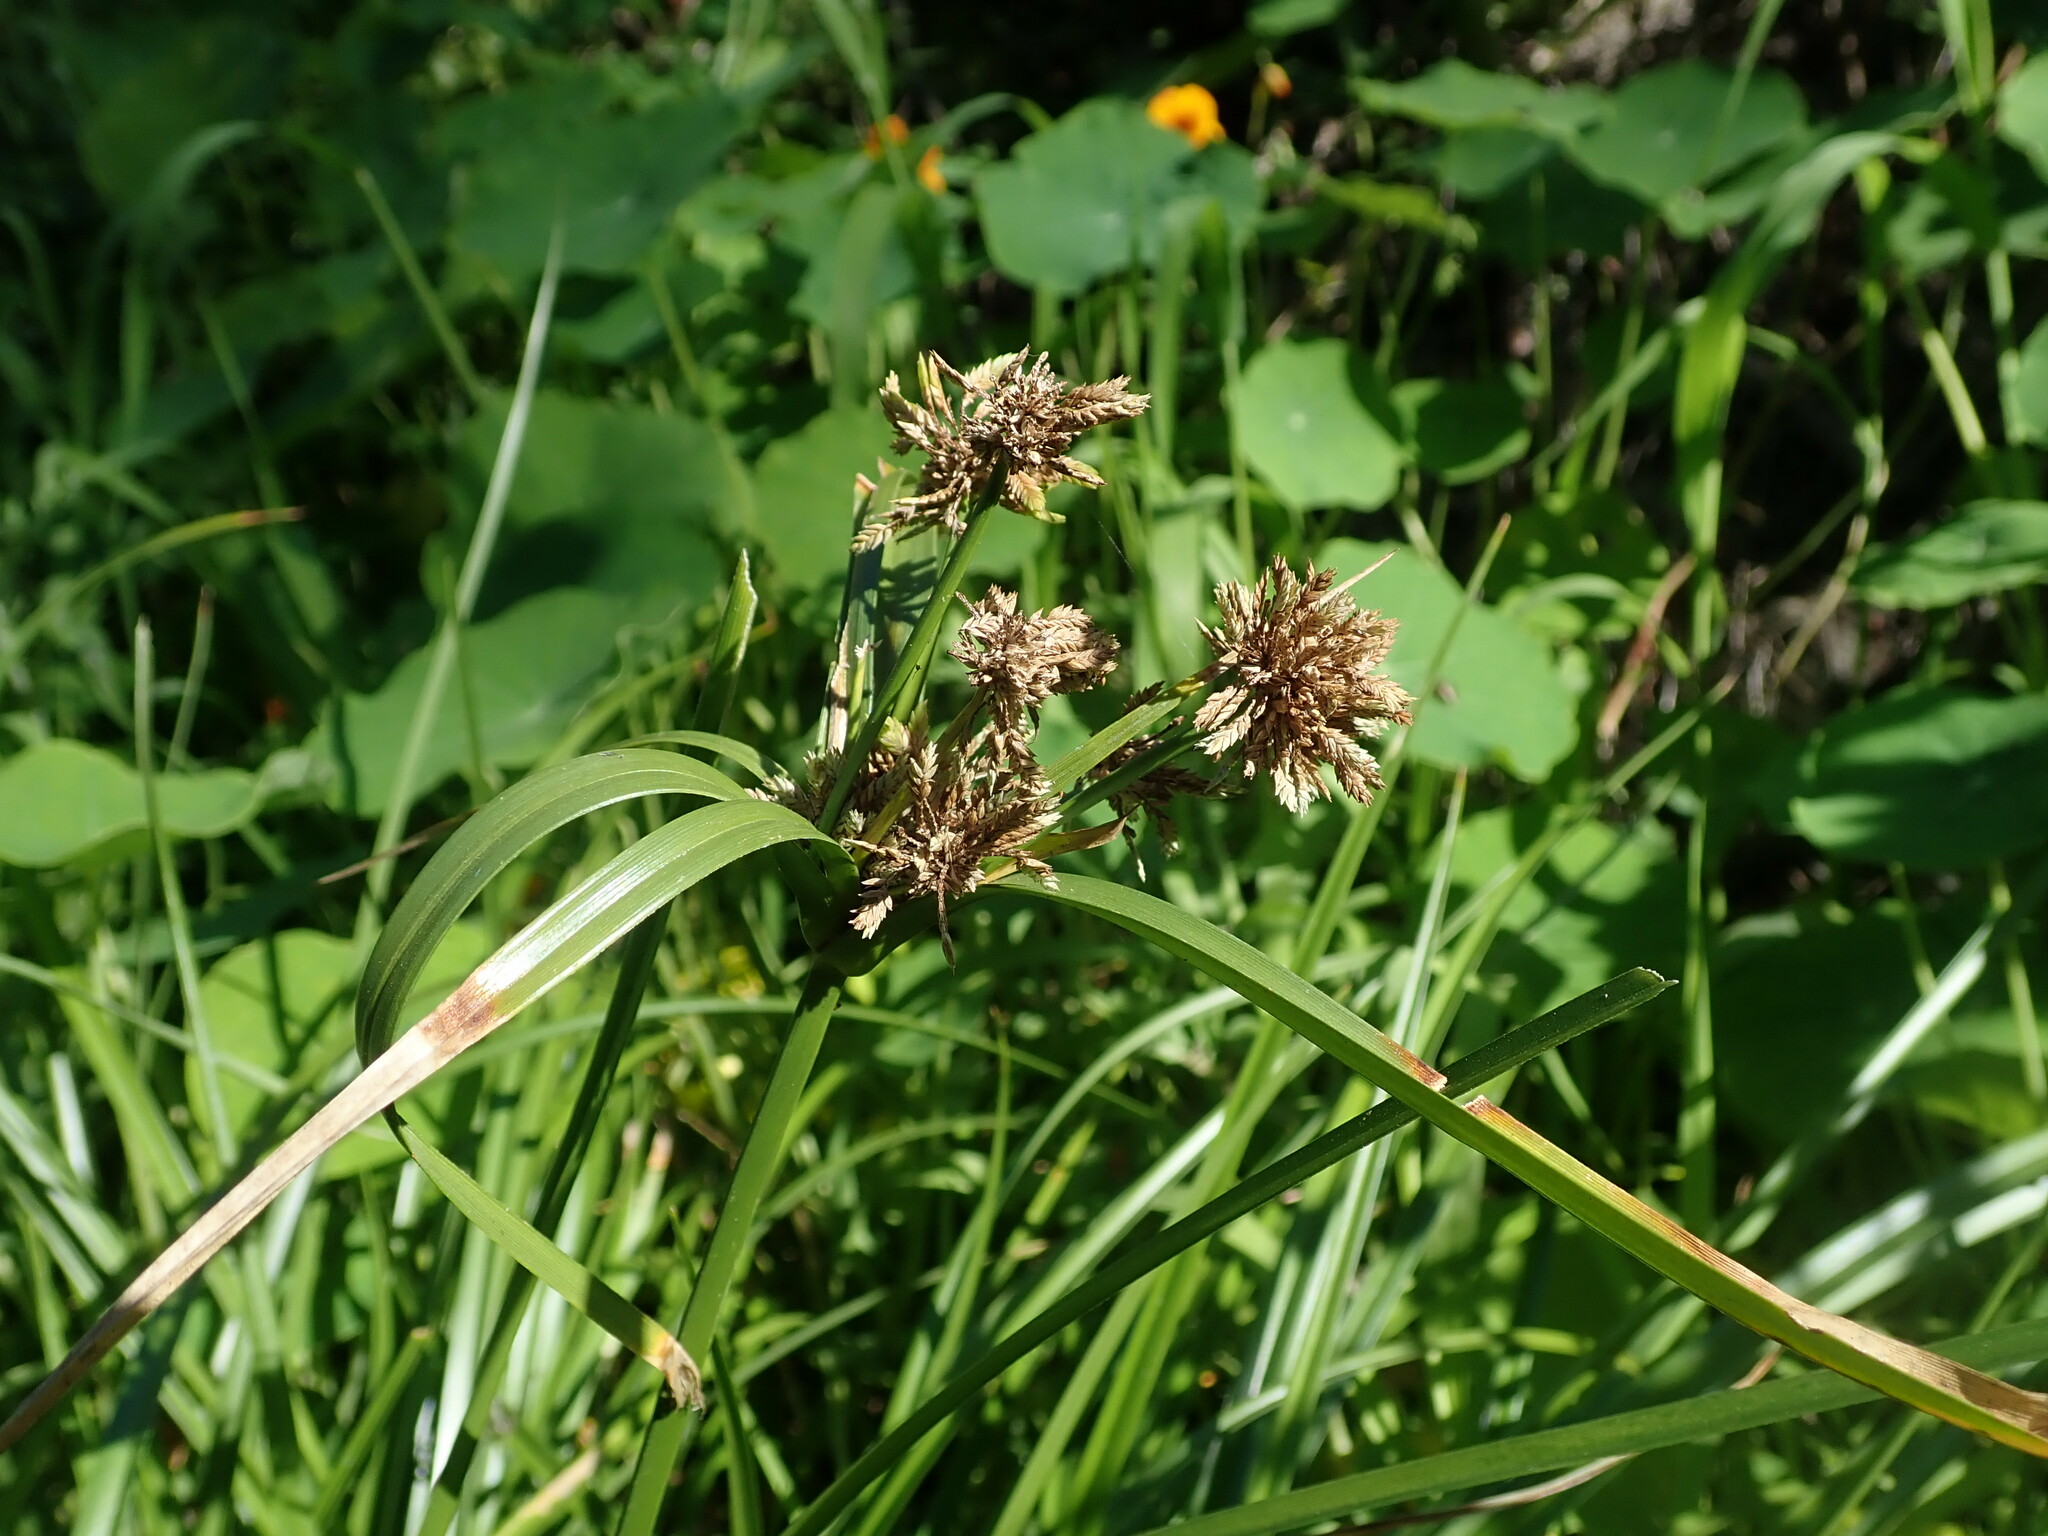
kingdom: Plantae
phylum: Tracheophyta
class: Liliopsida
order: Poales
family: Cyperaceae
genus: Cyperus
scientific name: Cyperus eragrostis
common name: Tall flatsedge
